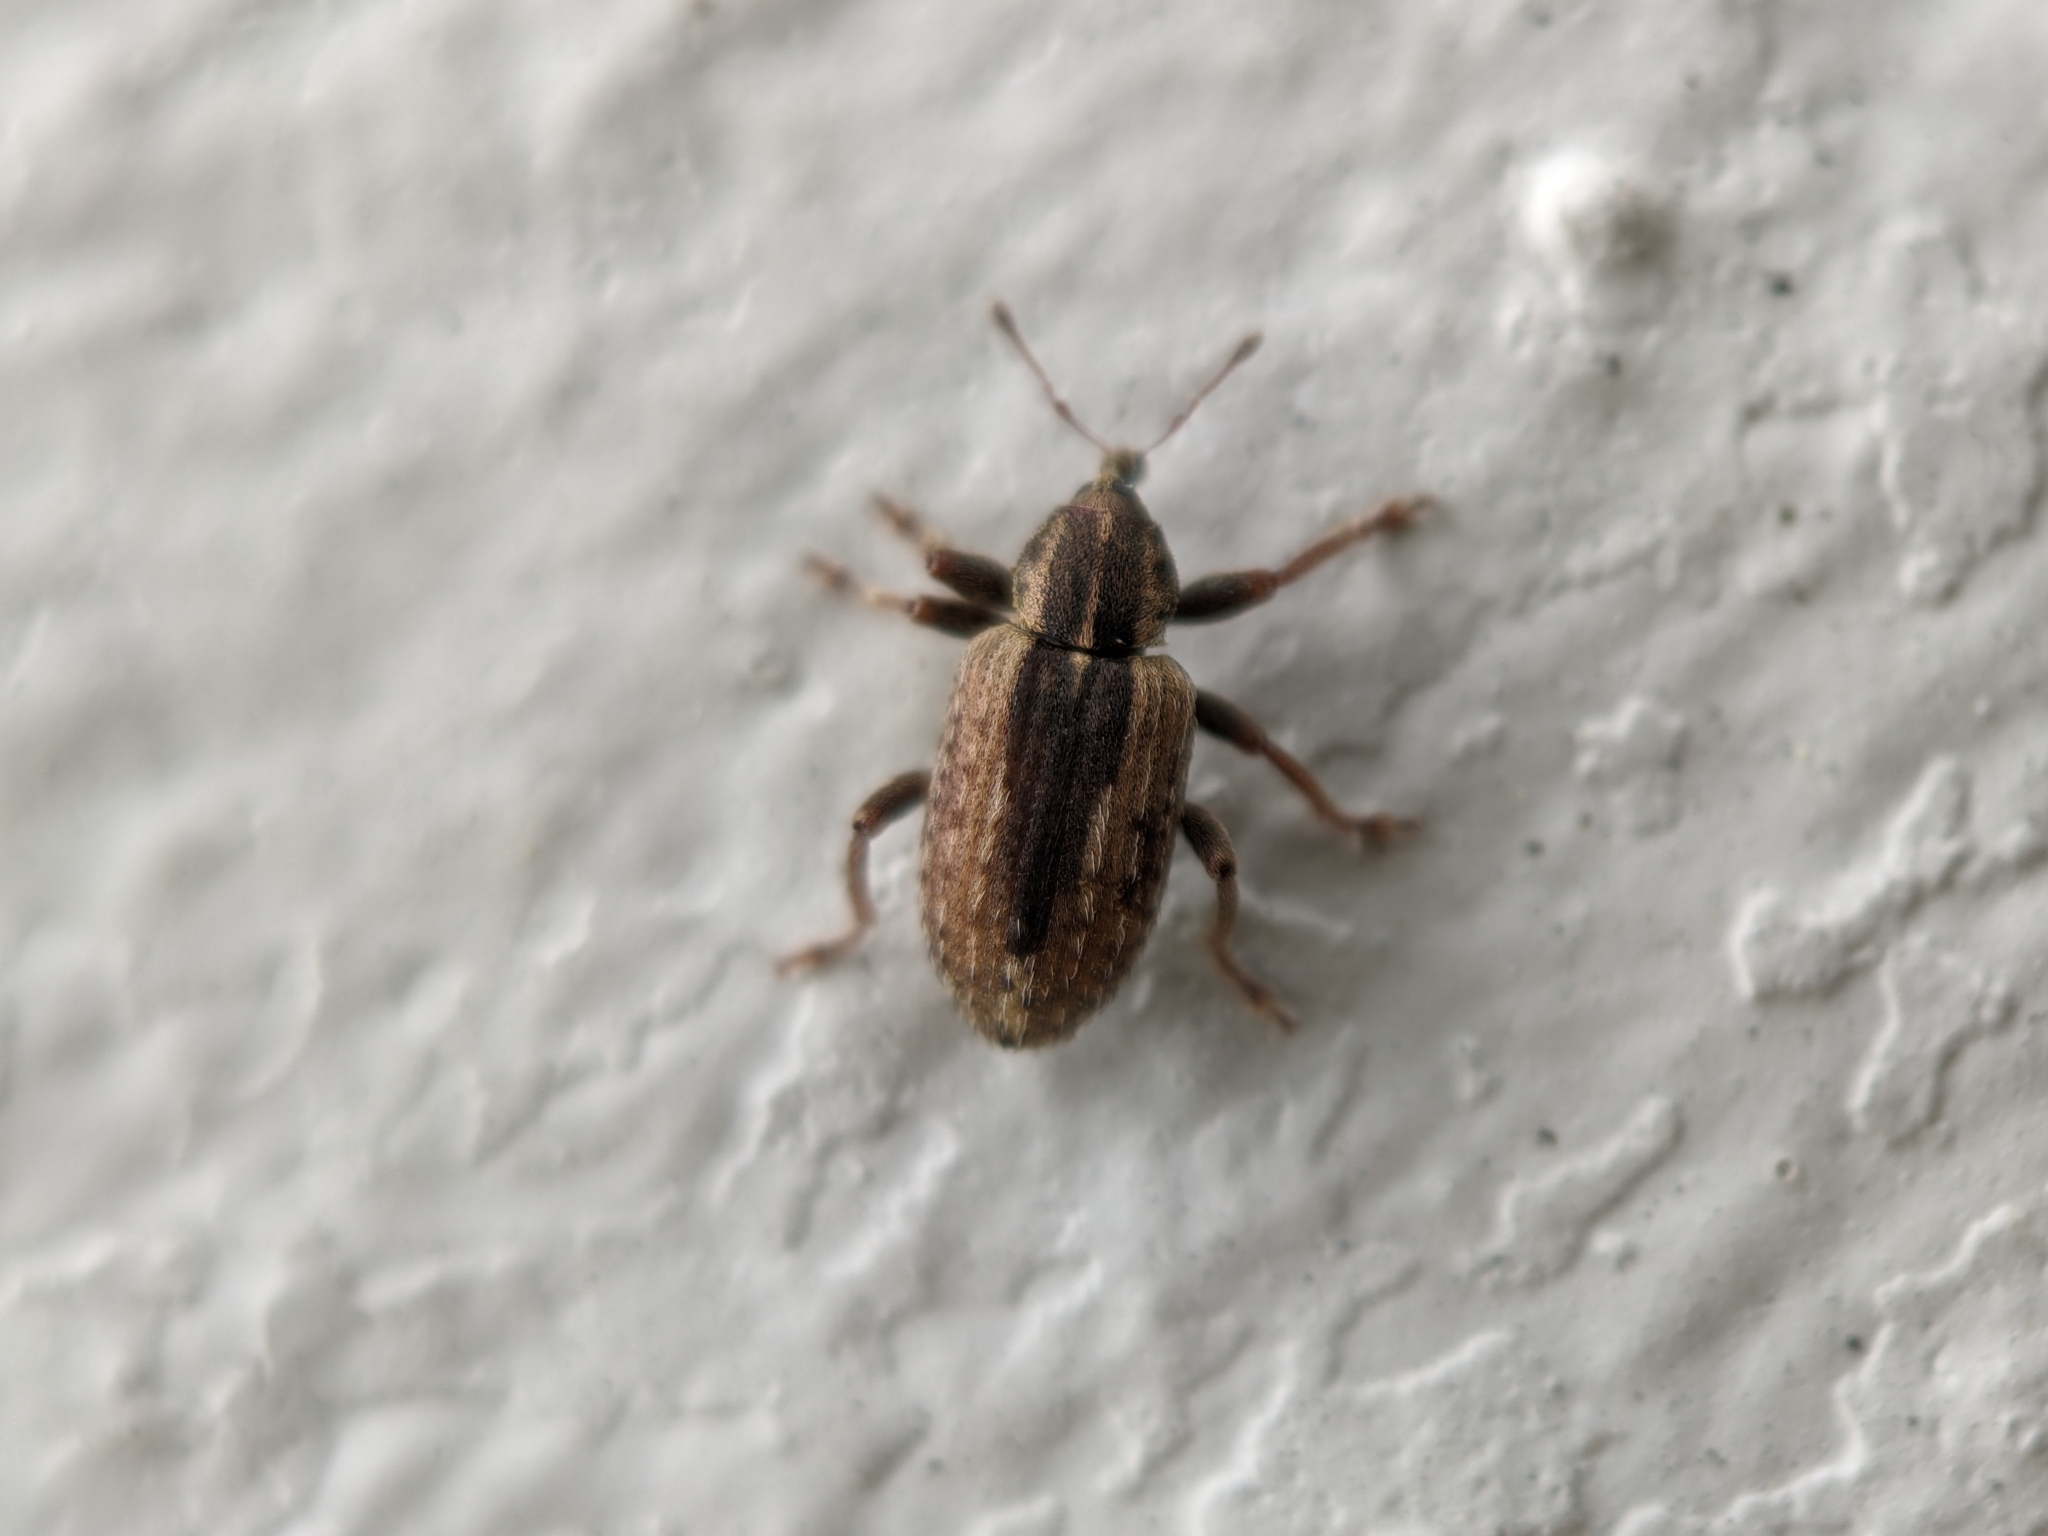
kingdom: Animalia
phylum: Arthropoda
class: Insecta
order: Coleoptera
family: Curculionidae
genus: Hypera
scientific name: Hypera postica
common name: Weevil
